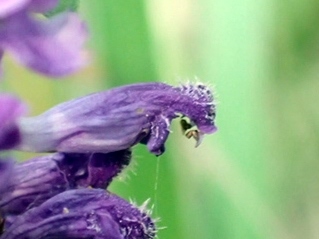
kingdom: Plantae
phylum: Tracheophyta
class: Magnoliopsida
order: Lamiales
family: Lamiaceae
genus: Prunella
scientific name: Prunella vulgaris
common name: Heal-all
